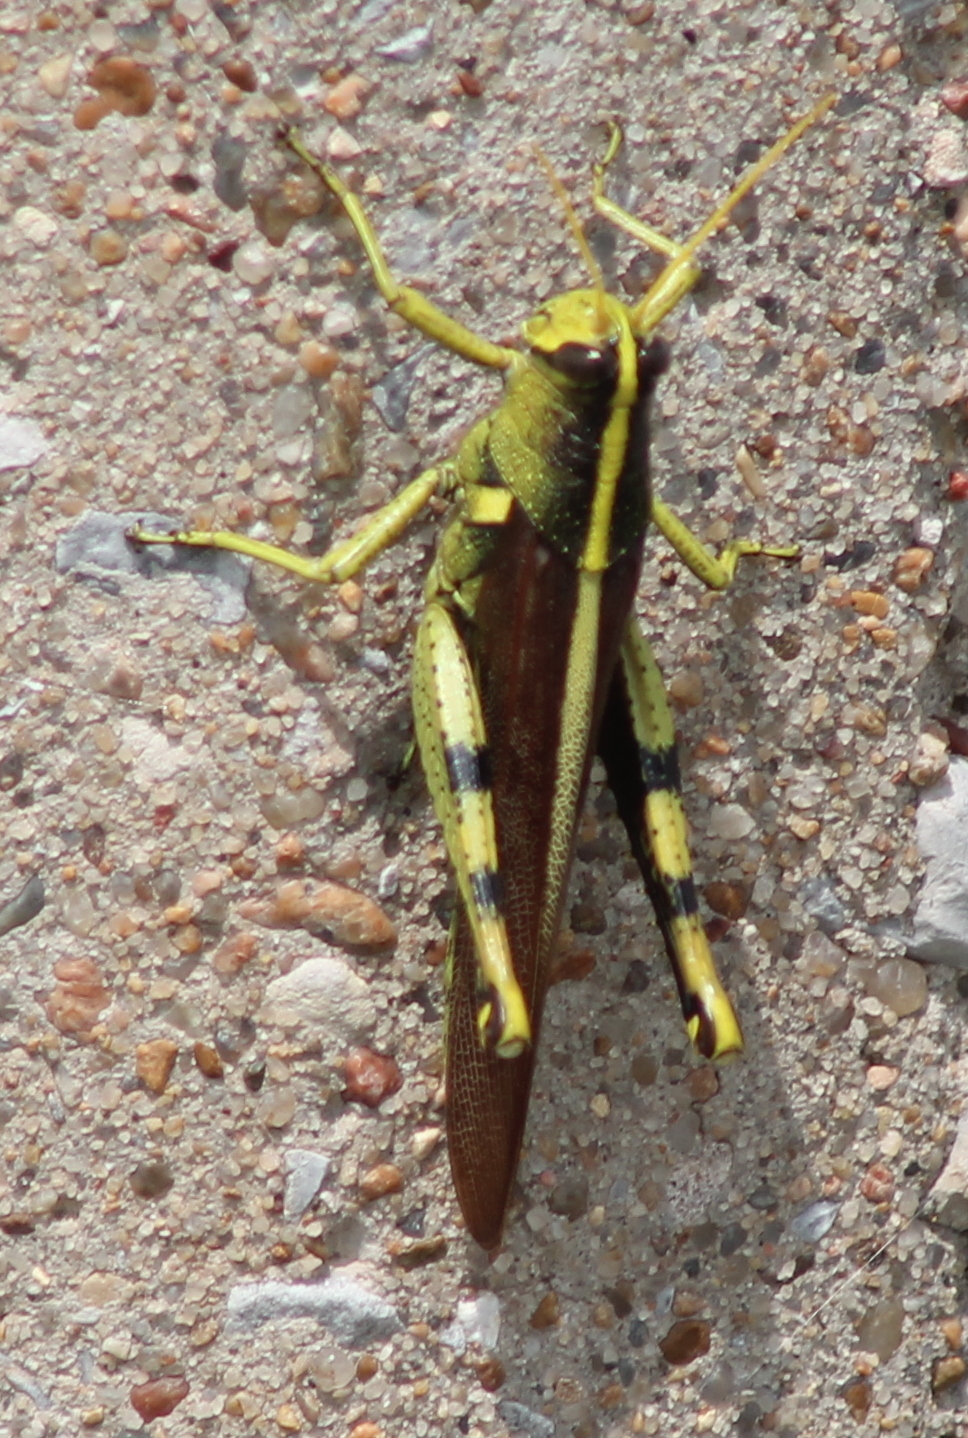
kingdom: Animalia
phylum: Arthropoda
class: Insecta
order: Orthoptera
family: Acrididae
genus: Schistocerca
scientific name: Schistocerca obscura
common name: Obscure bird grasshopper
